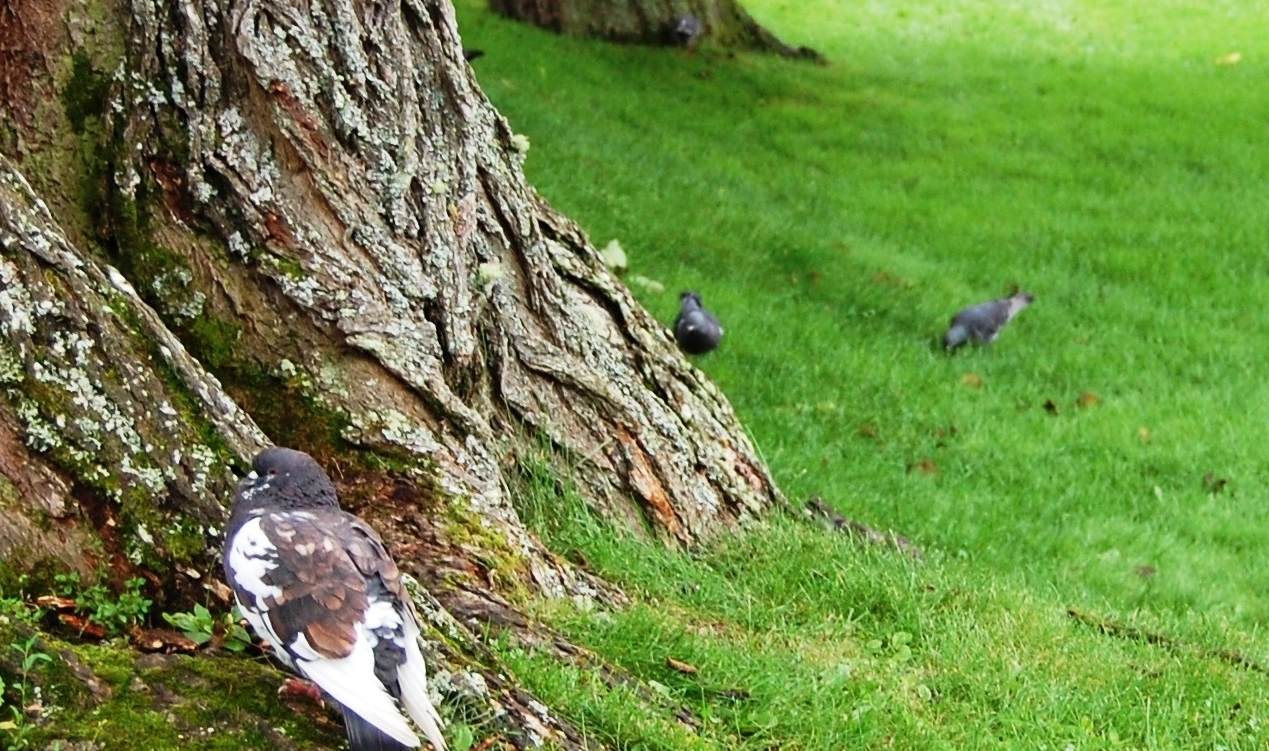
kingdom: Animalia
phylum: Chordata
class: Aves
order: Columbiformes
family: Columbidae
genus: Columba
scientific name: Columba livia
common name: Rock pigeon
